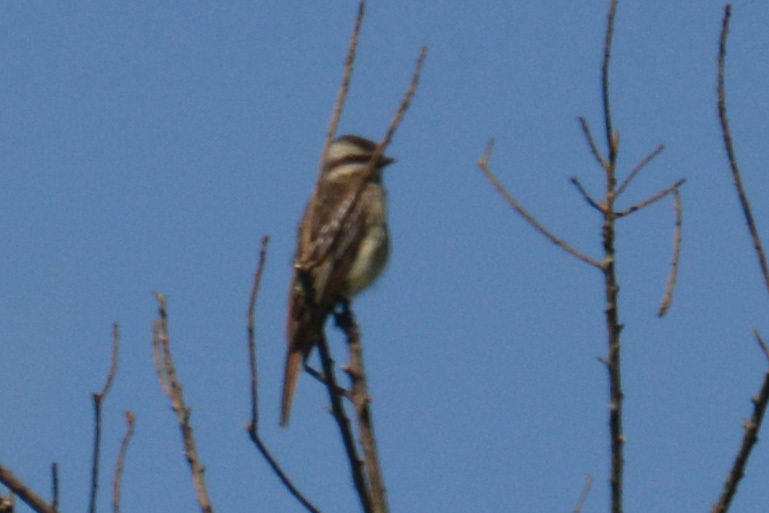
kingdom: Animalia
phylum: Chordata
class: Aves
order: Passeriformes
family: Tyrannidae
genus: Legatus
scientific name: Legatus leucophaius
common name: Piratic flycatcher
